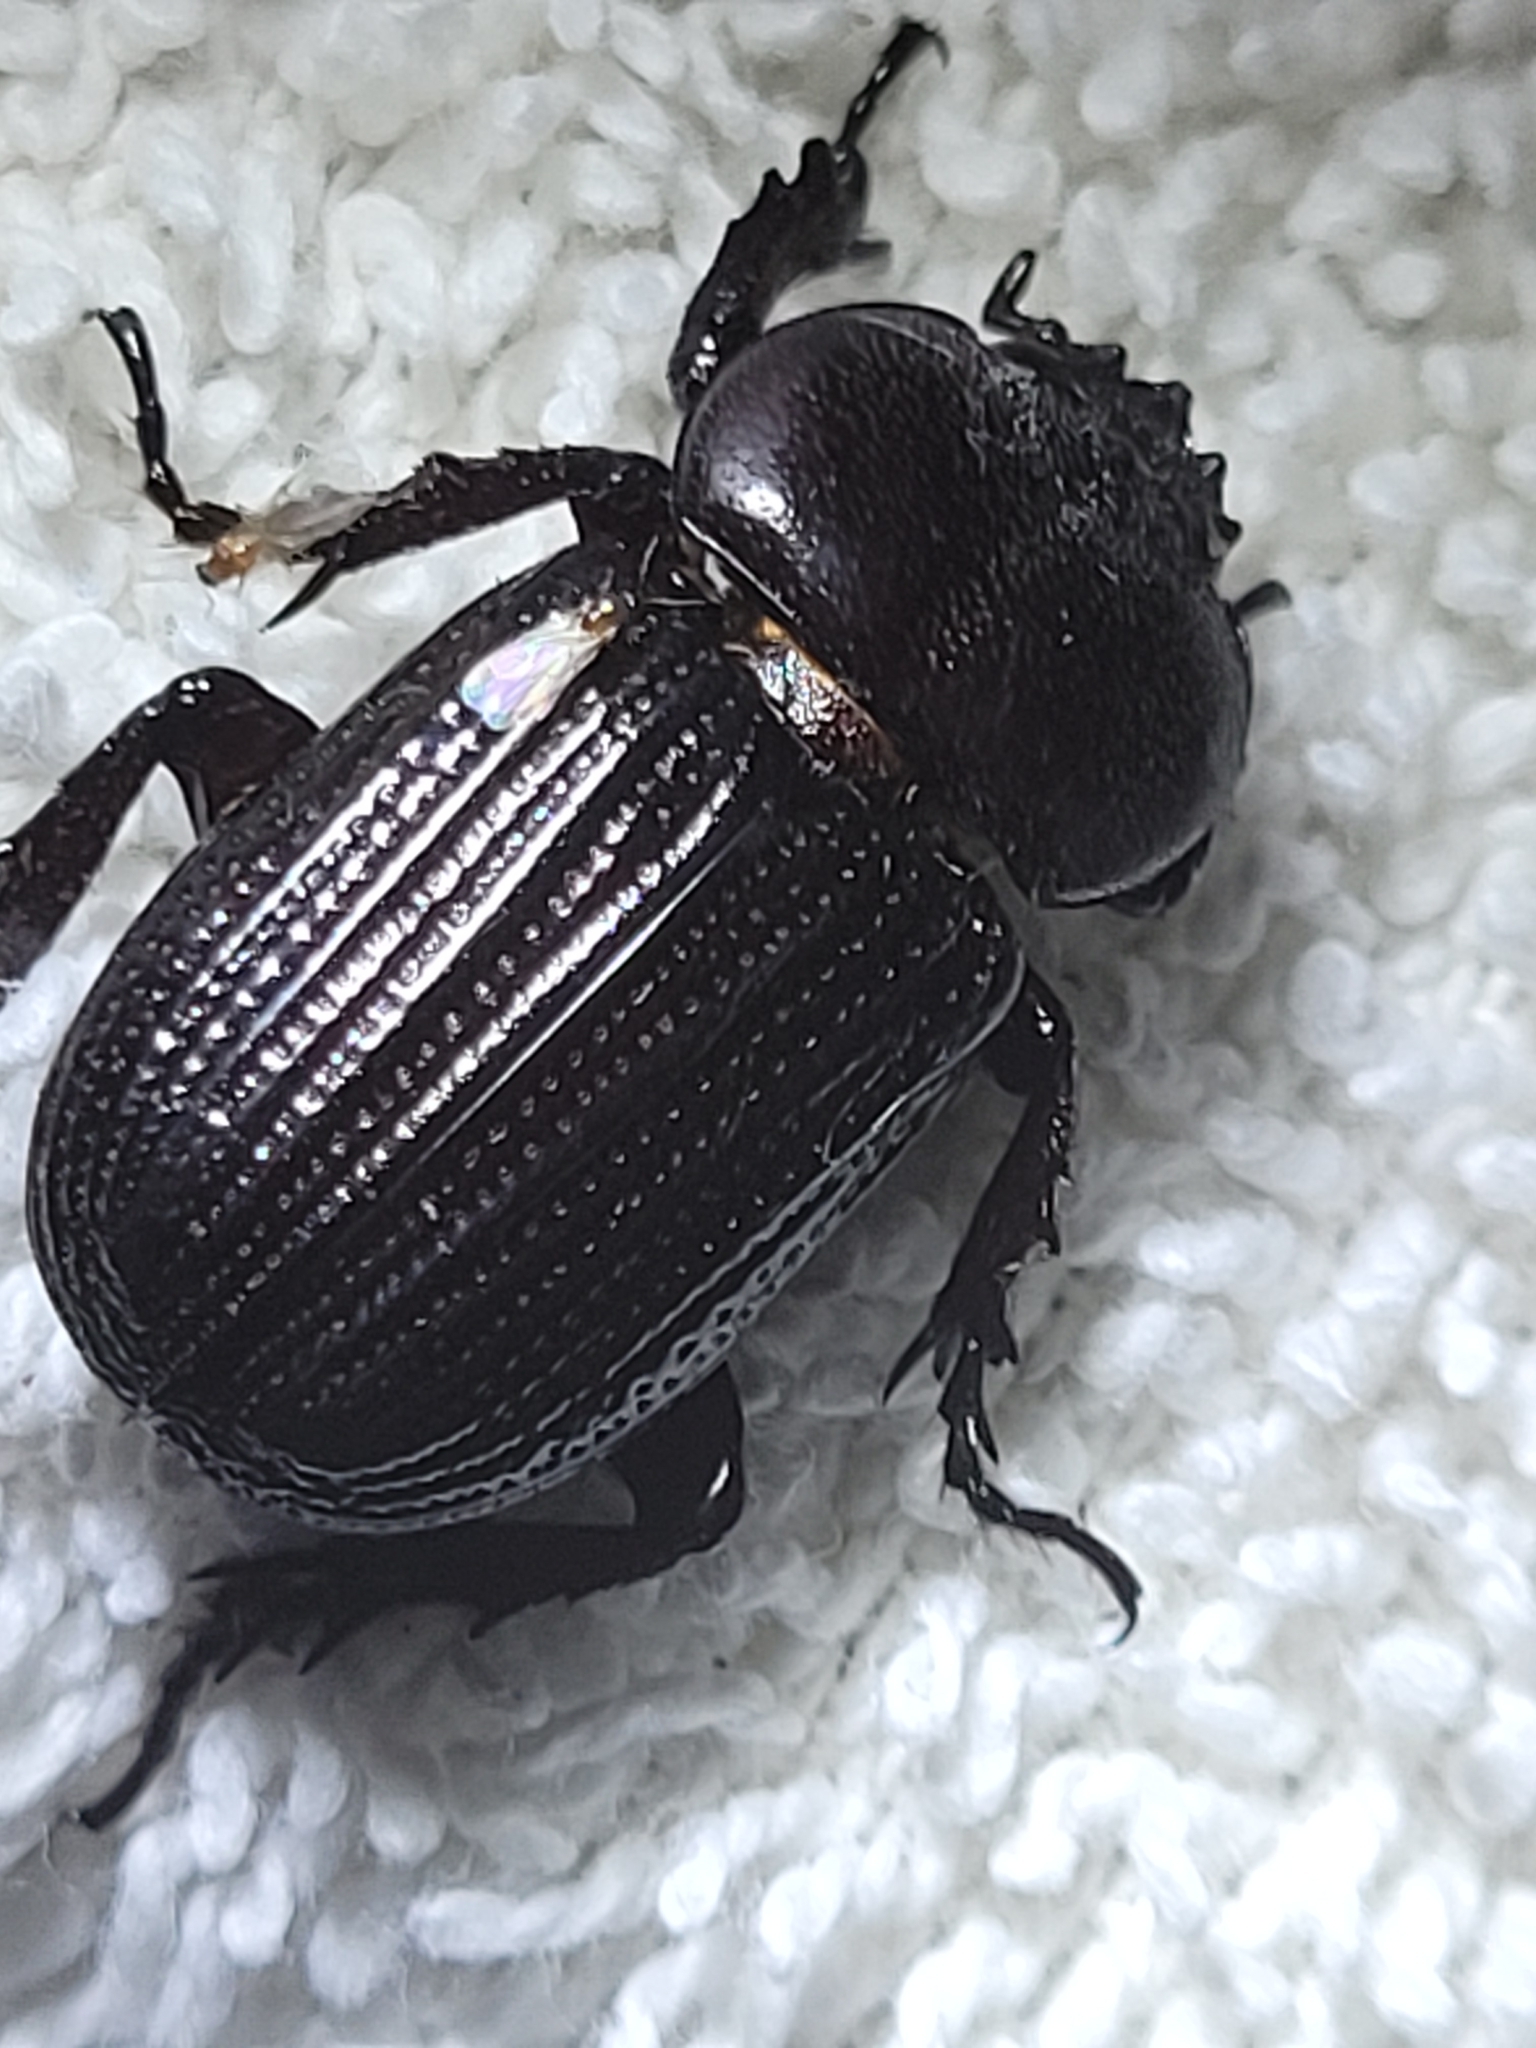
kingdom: Animalia
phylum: Arthropoda
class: Insecta
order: Coleoptera
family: Scarabaeidae
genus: Phileurus
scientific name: Phileurus valgus
